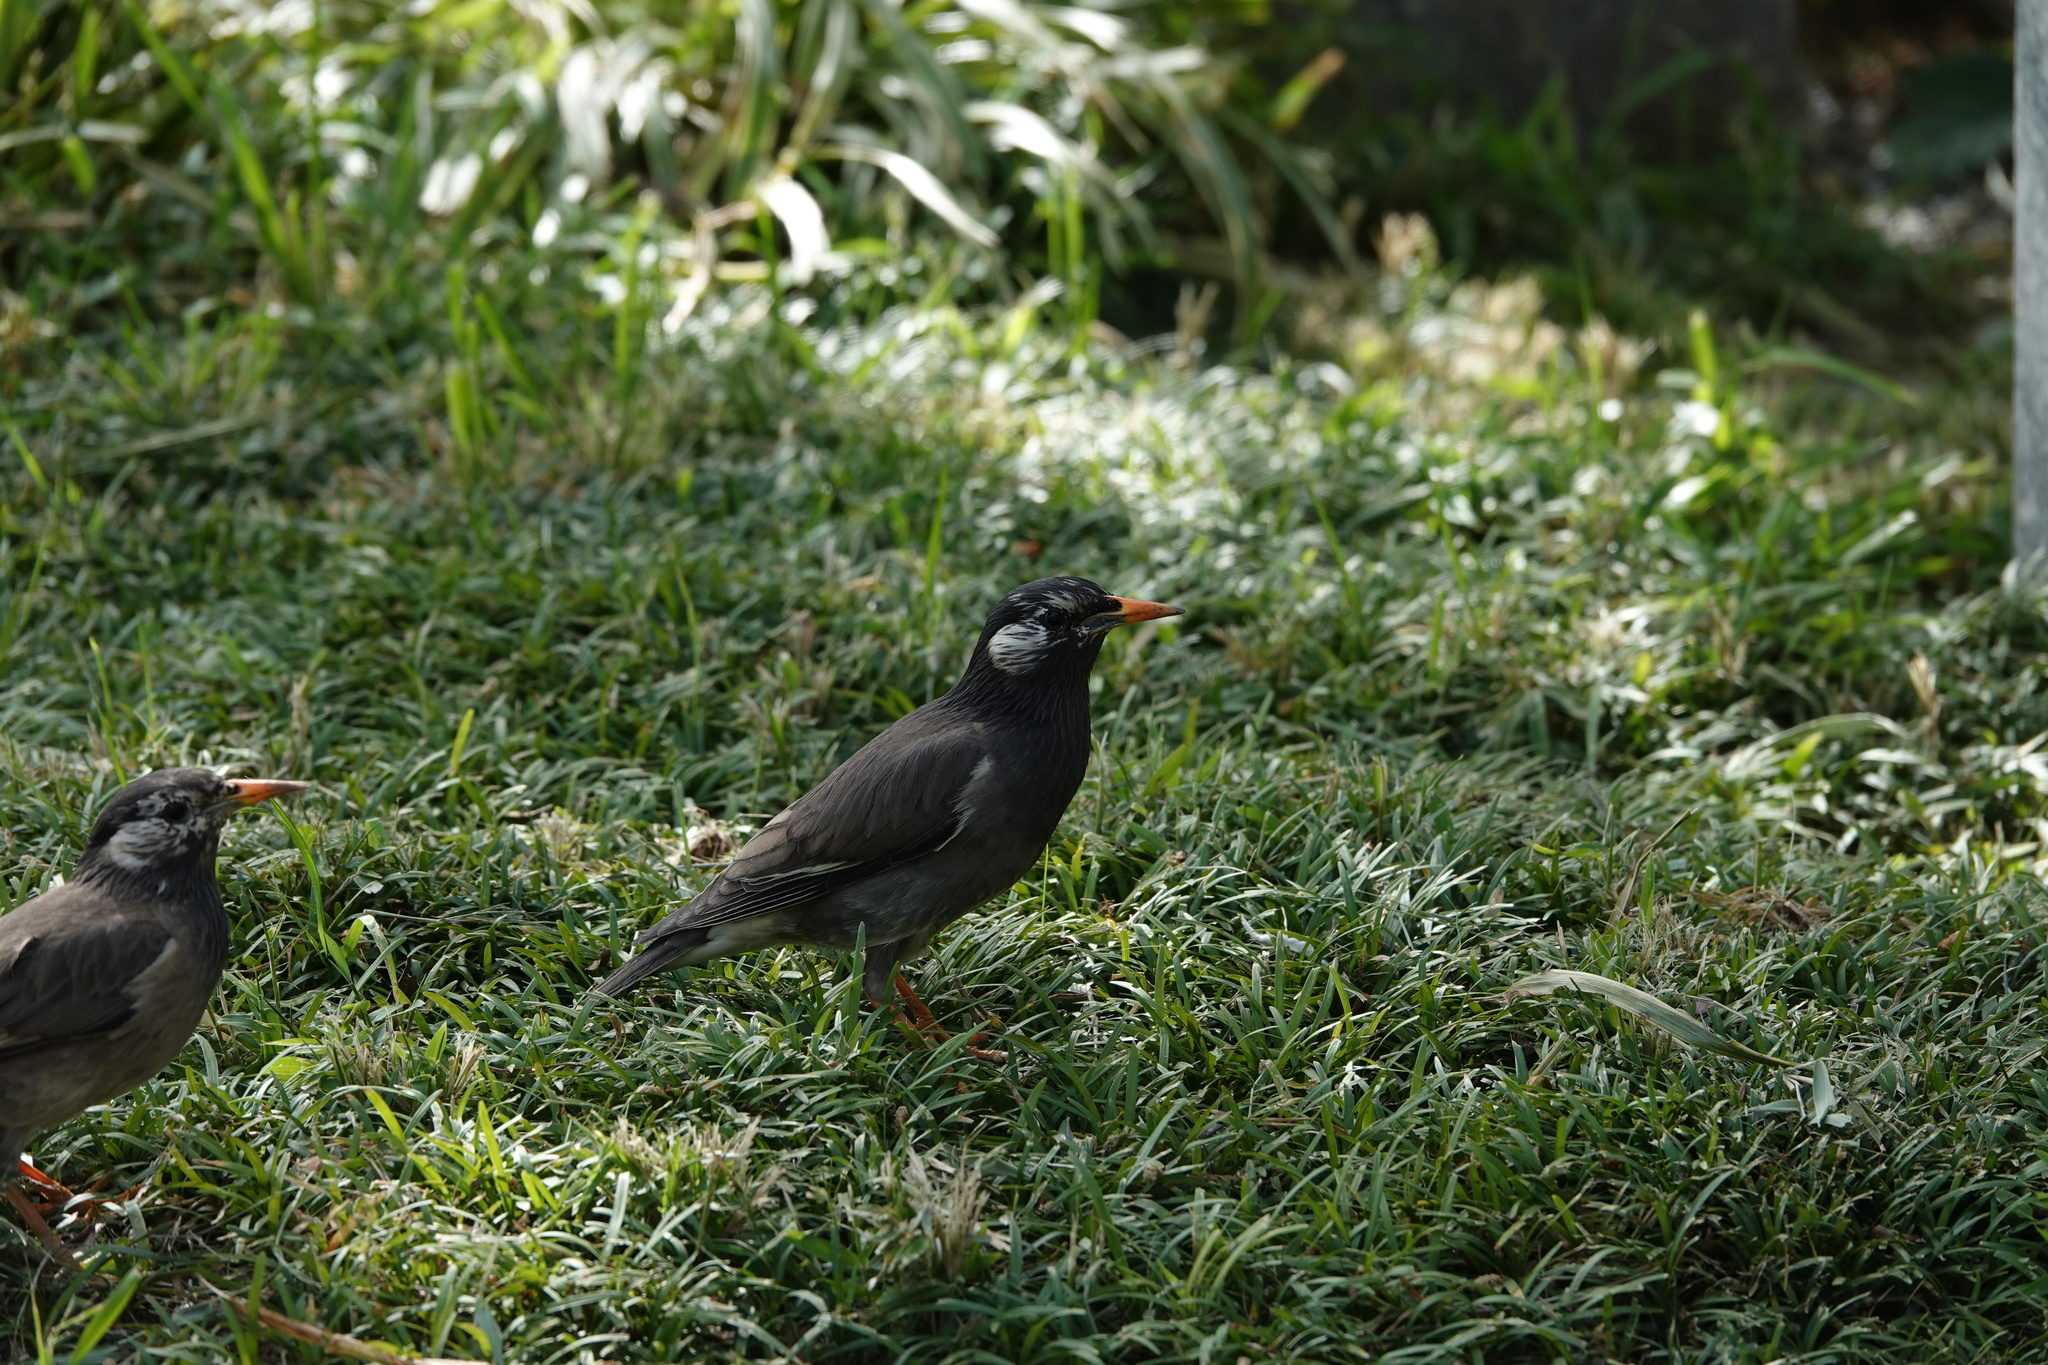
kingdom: Animalia
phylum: Chordata
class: Aves
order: Passeriformes
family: Sturnidae
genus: Spodiopsar
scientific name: Spodiopsar cineraceus
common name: White-cheeked starling
